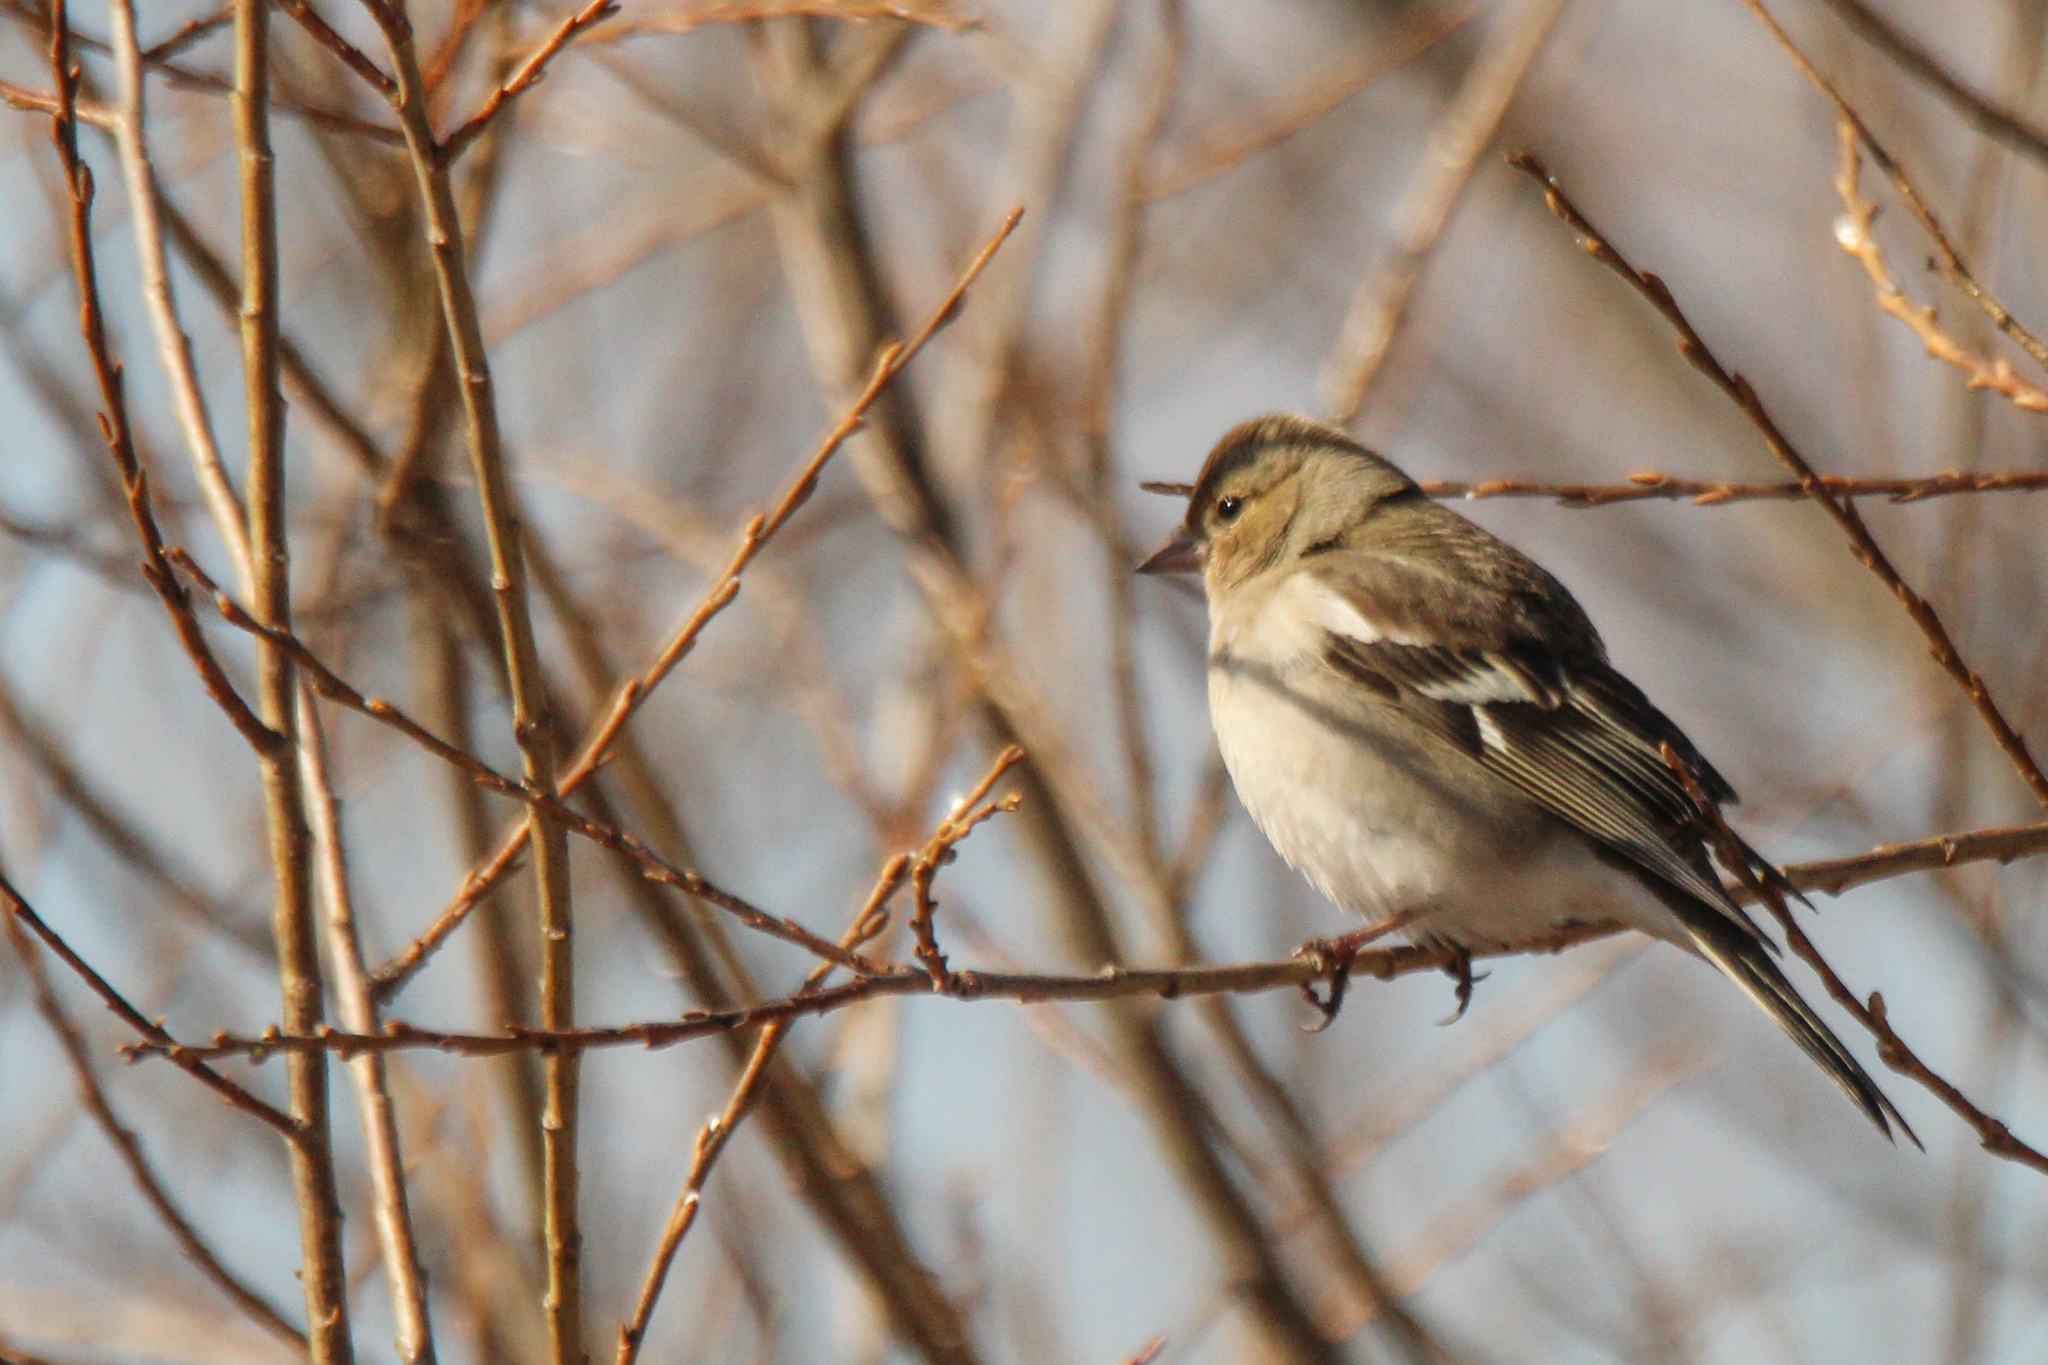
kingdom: Animalia
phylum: Chordata
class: Aves
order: Passeriformes
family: Fringillidae
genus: Fringilla
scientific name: Fringilla coelebs
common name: Common chaffinch
